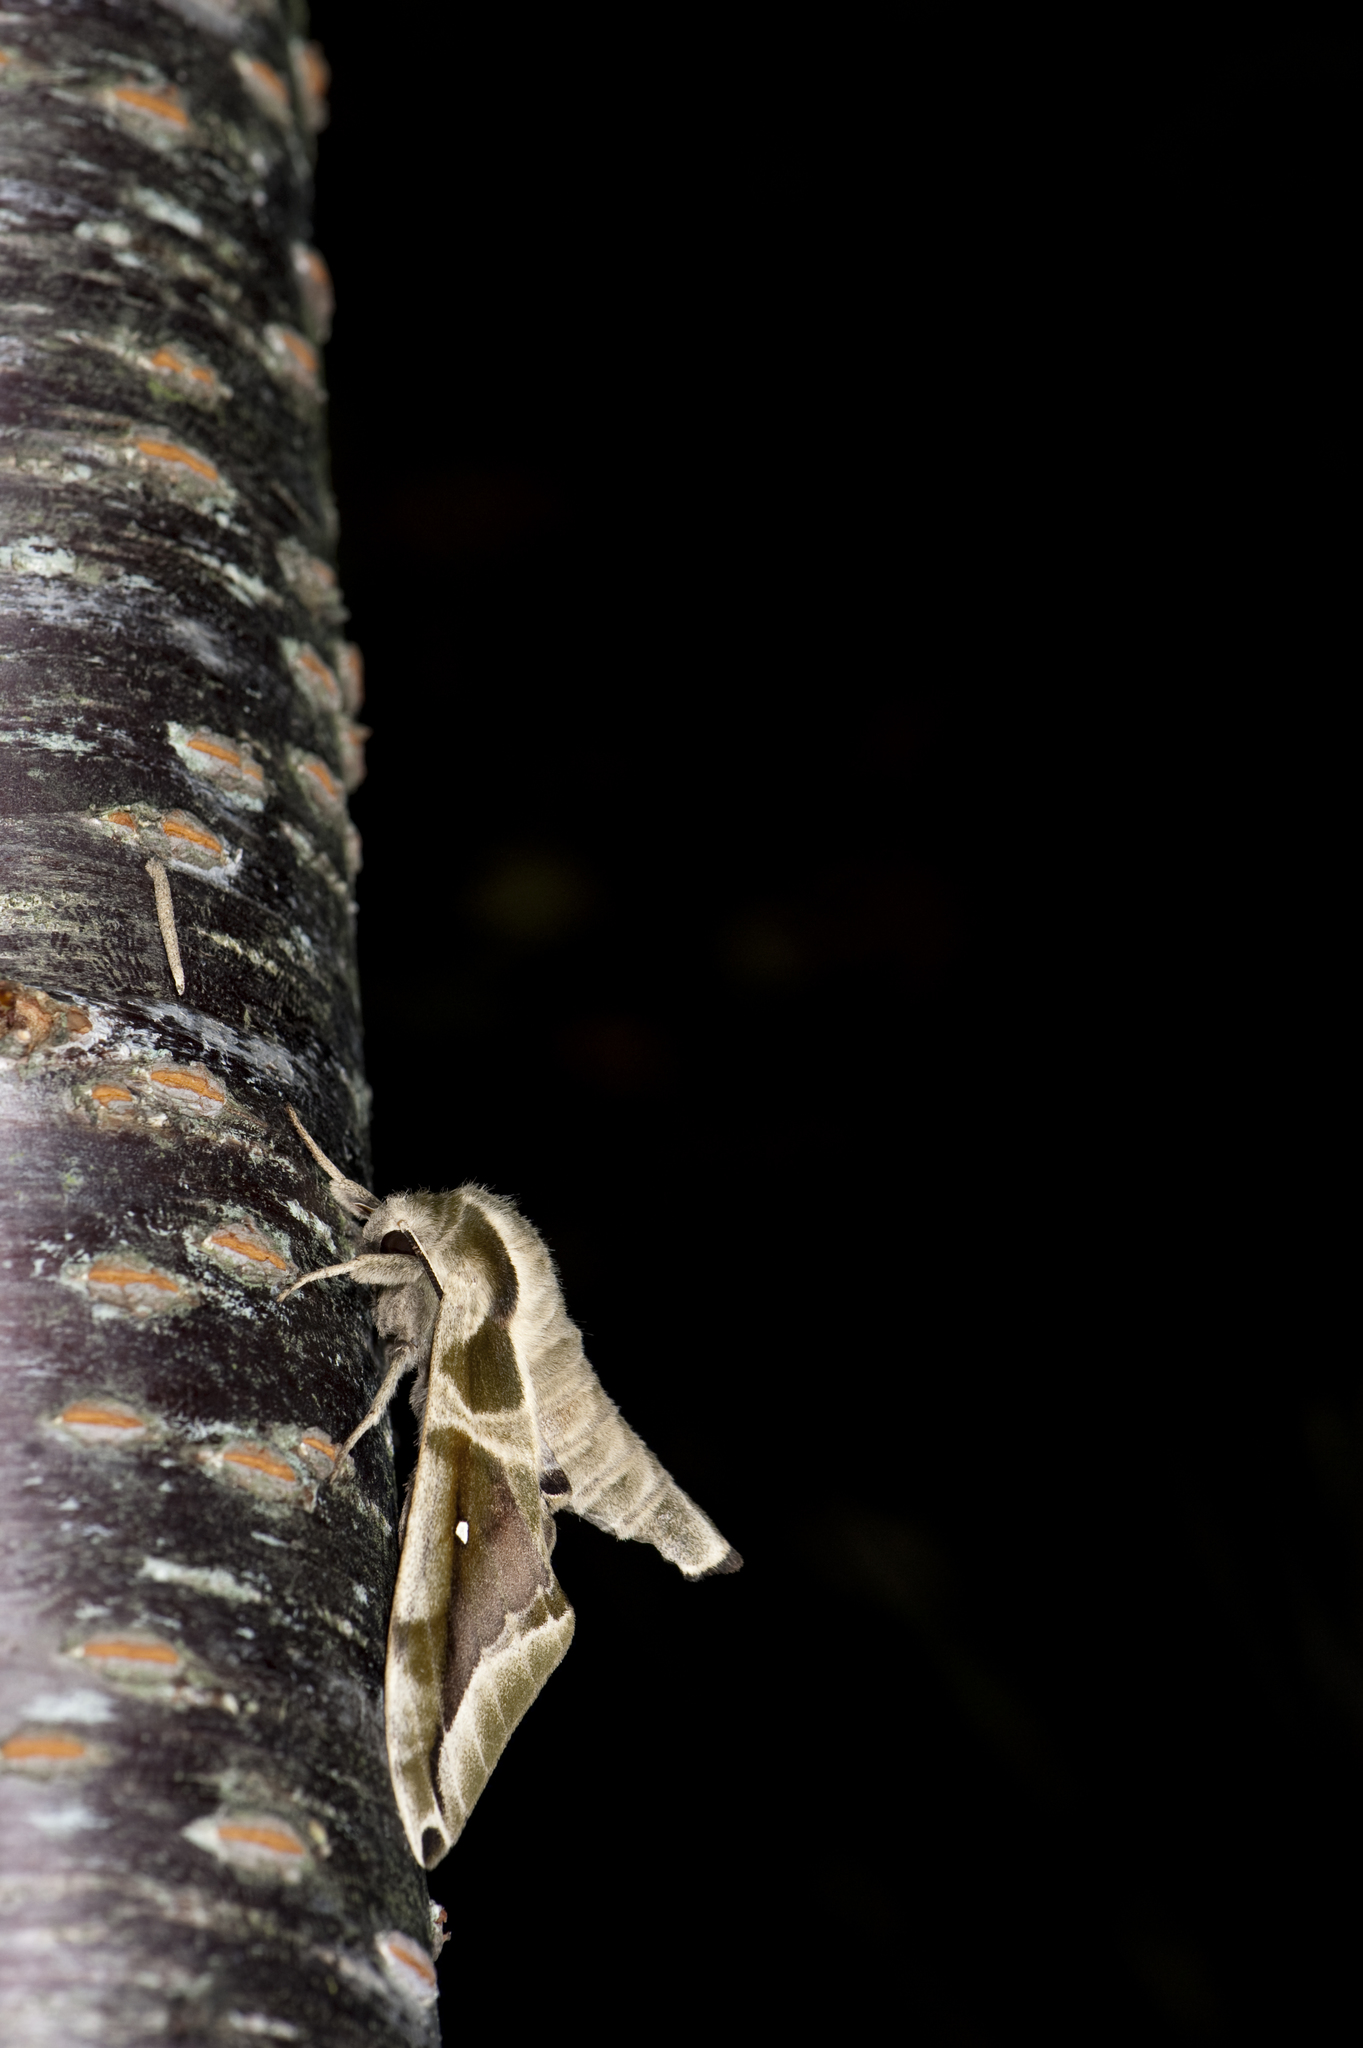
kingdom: Animalia
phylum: Arthropoda
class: Insecta
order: Lepidoptera
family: Sphingidae
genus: Parum
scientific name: Parum colligata
